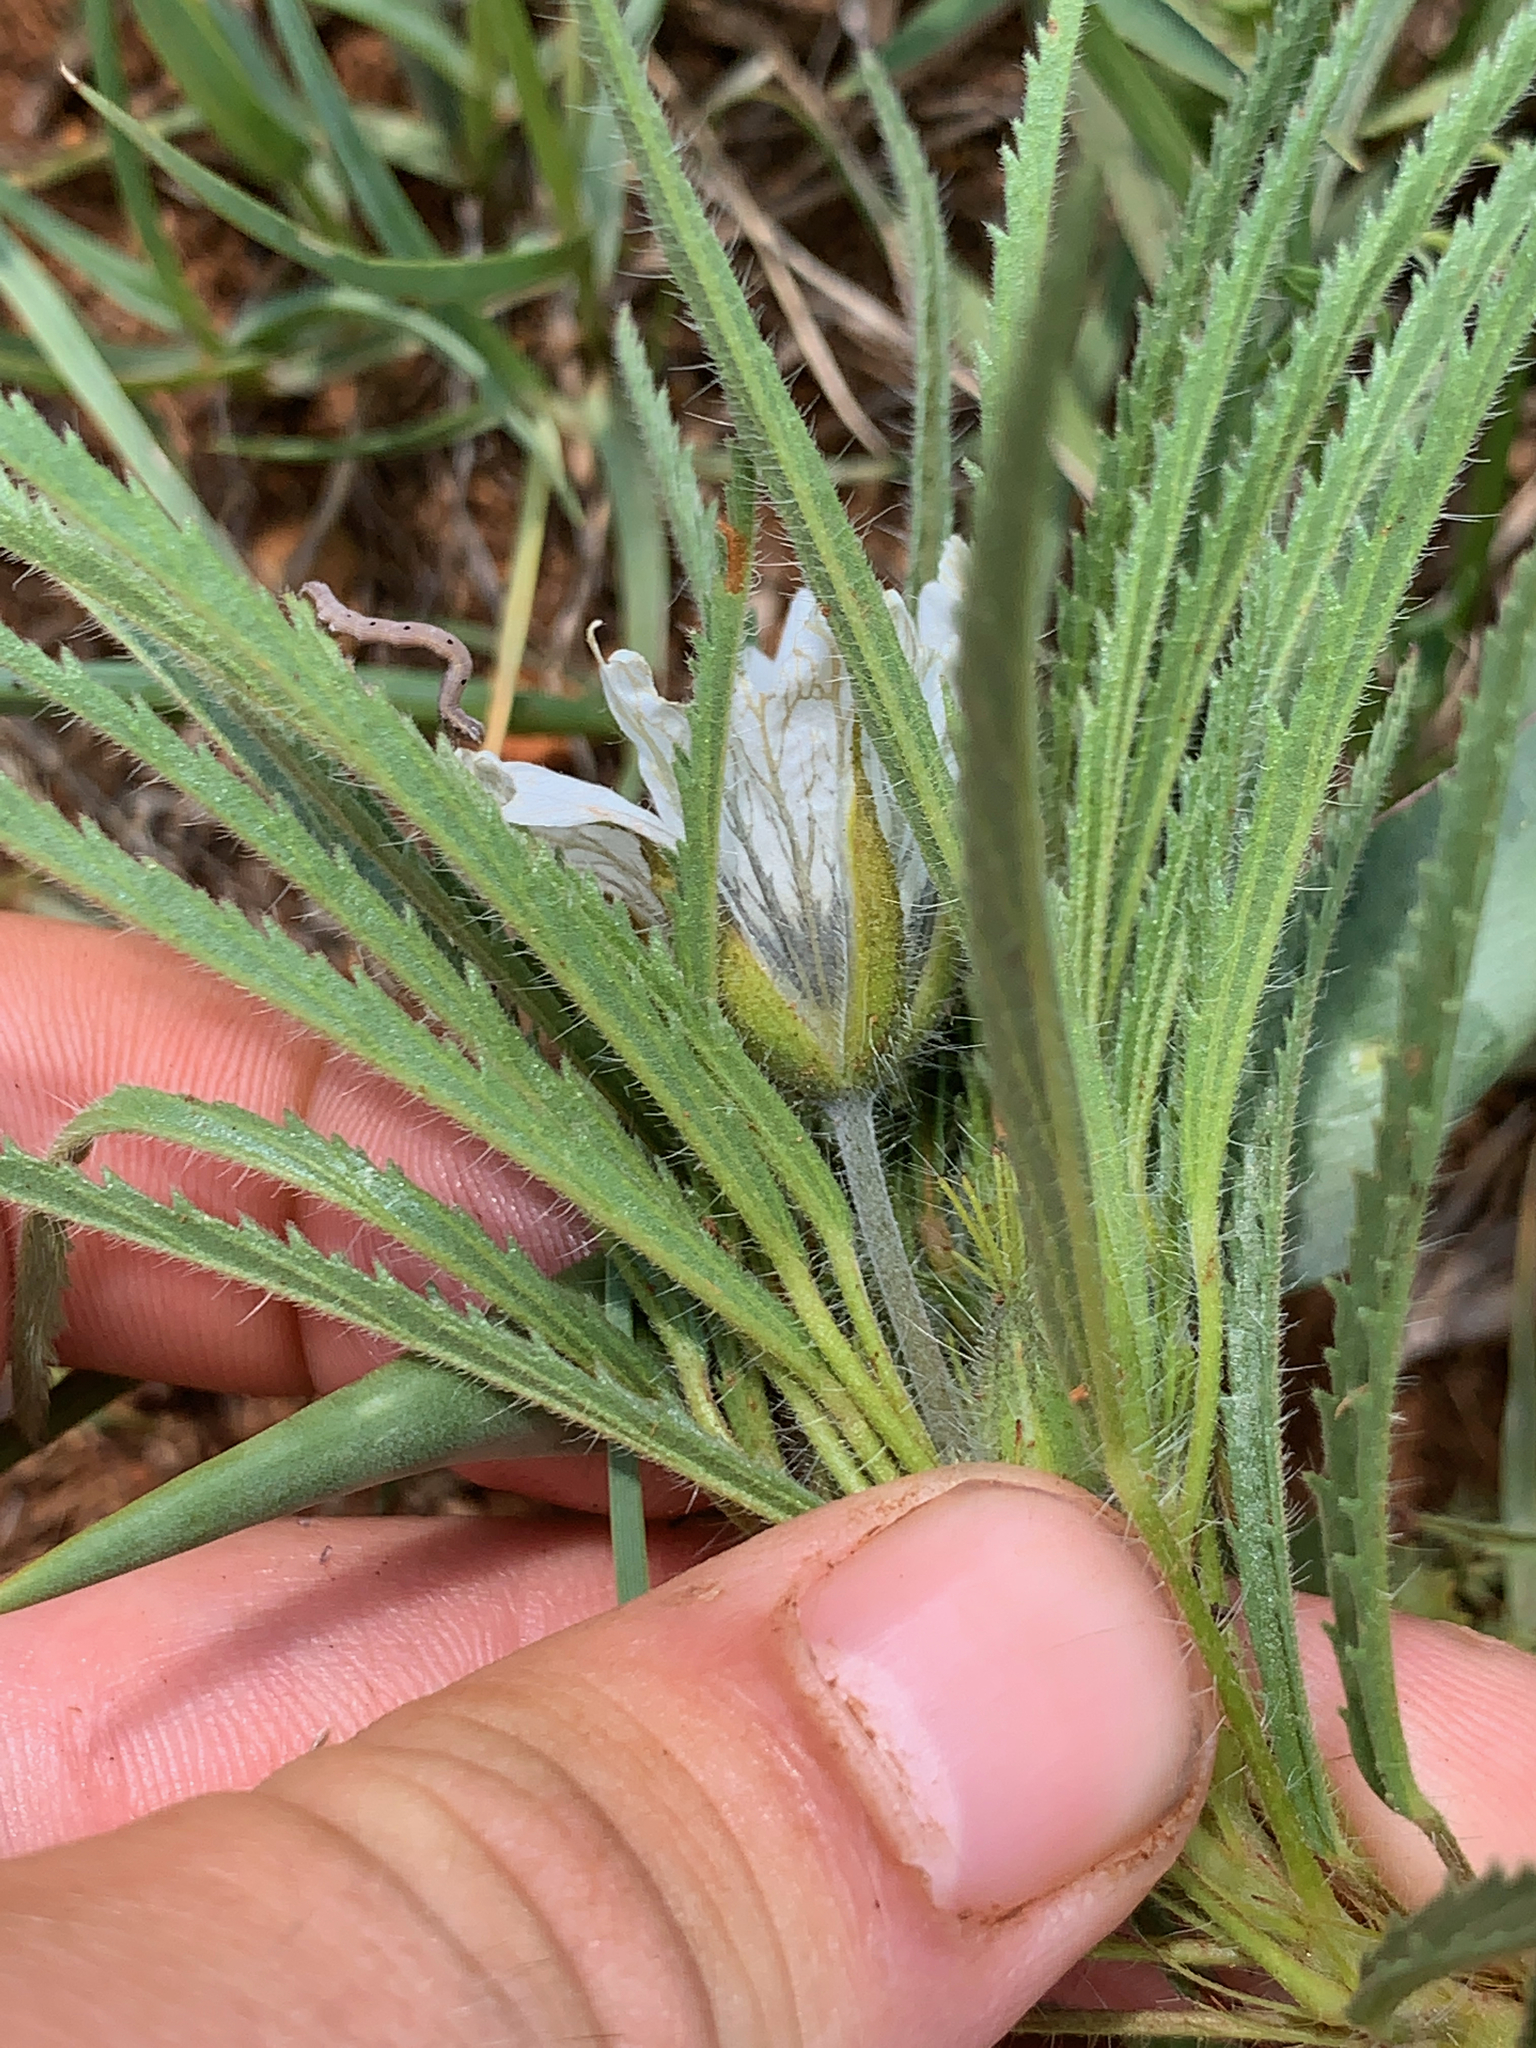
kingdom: Plantae
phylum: Tracheophyta
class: Magnoliopsida
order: Geraniales
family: Geraniaceae
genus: Monsonia
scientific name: Monsonia attenuata
